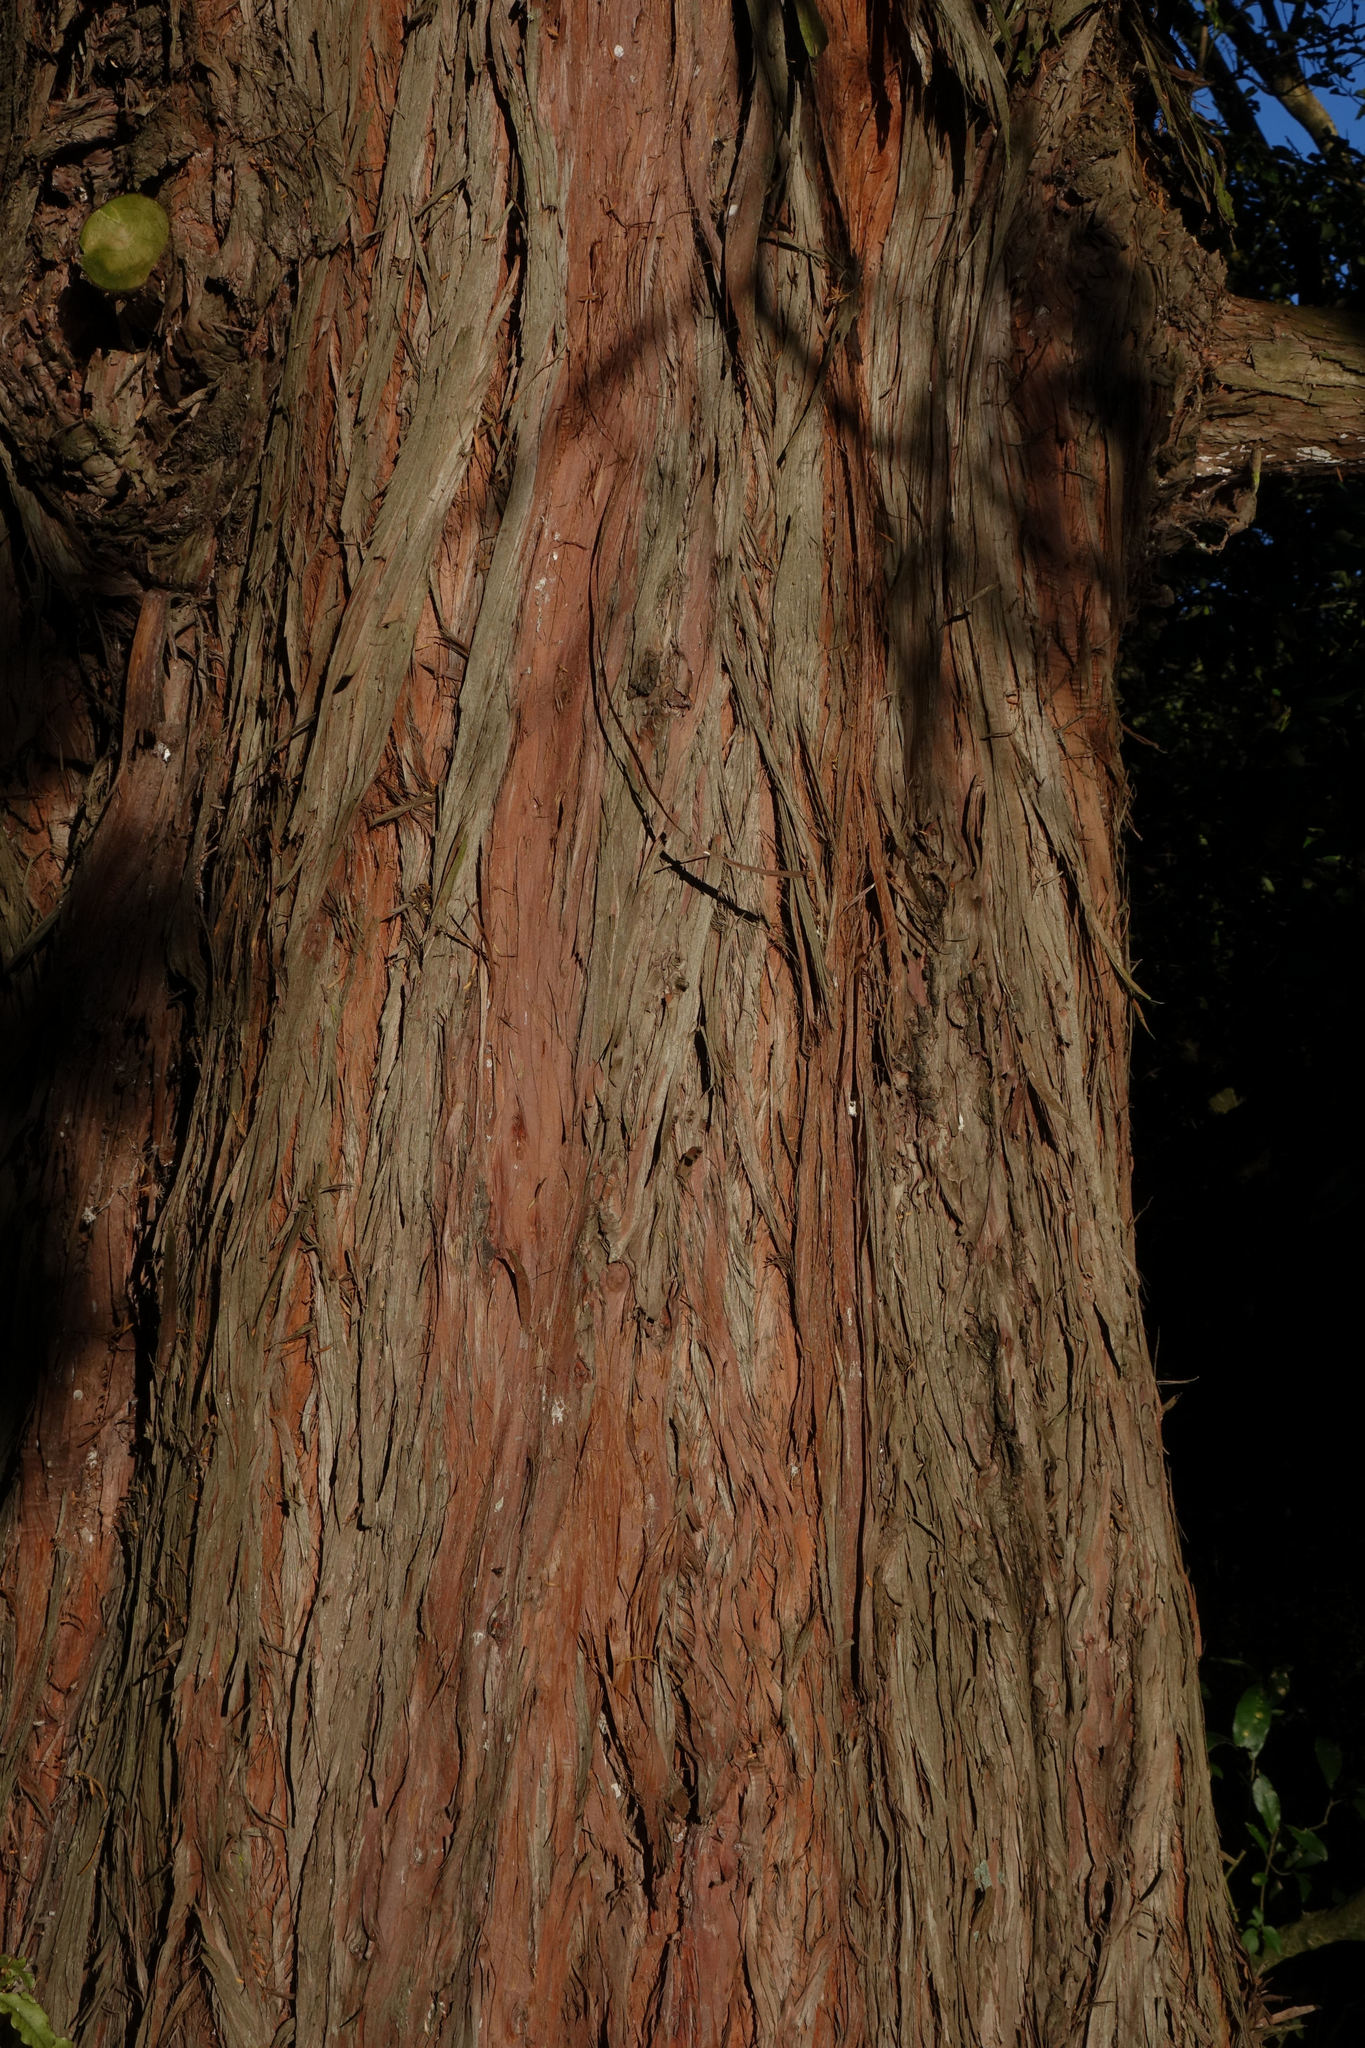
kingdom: Plantae
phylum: Tracheophyta
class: Pinopsida
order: Pinales
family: Podocarpaceae
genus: Podocarpus
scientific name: Podocarpus totara
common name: Totara
